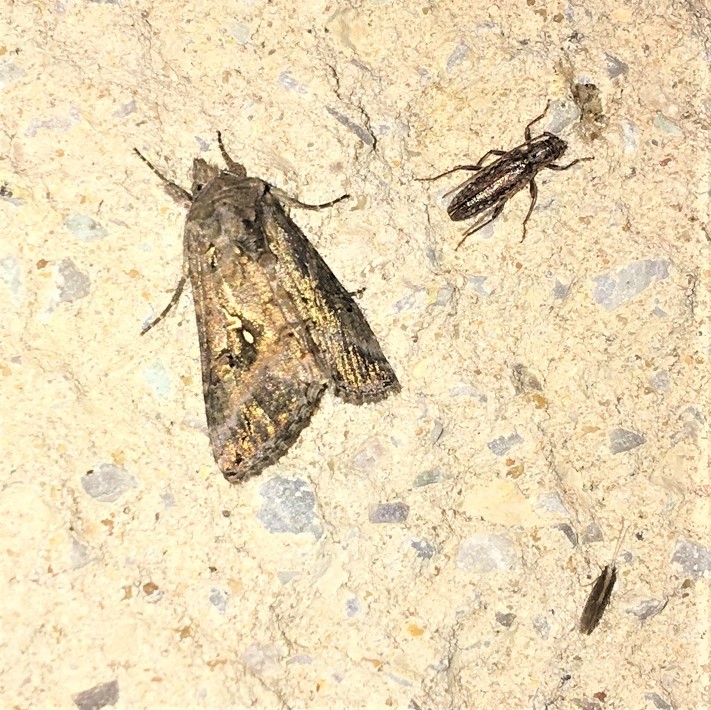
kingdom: Animalia
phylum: Arthropoda
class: Insecta
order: Lepidoptera
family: Noctuidae
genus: Rachiplusia
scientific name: Rachiplusia ou
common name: Gray looper moth
